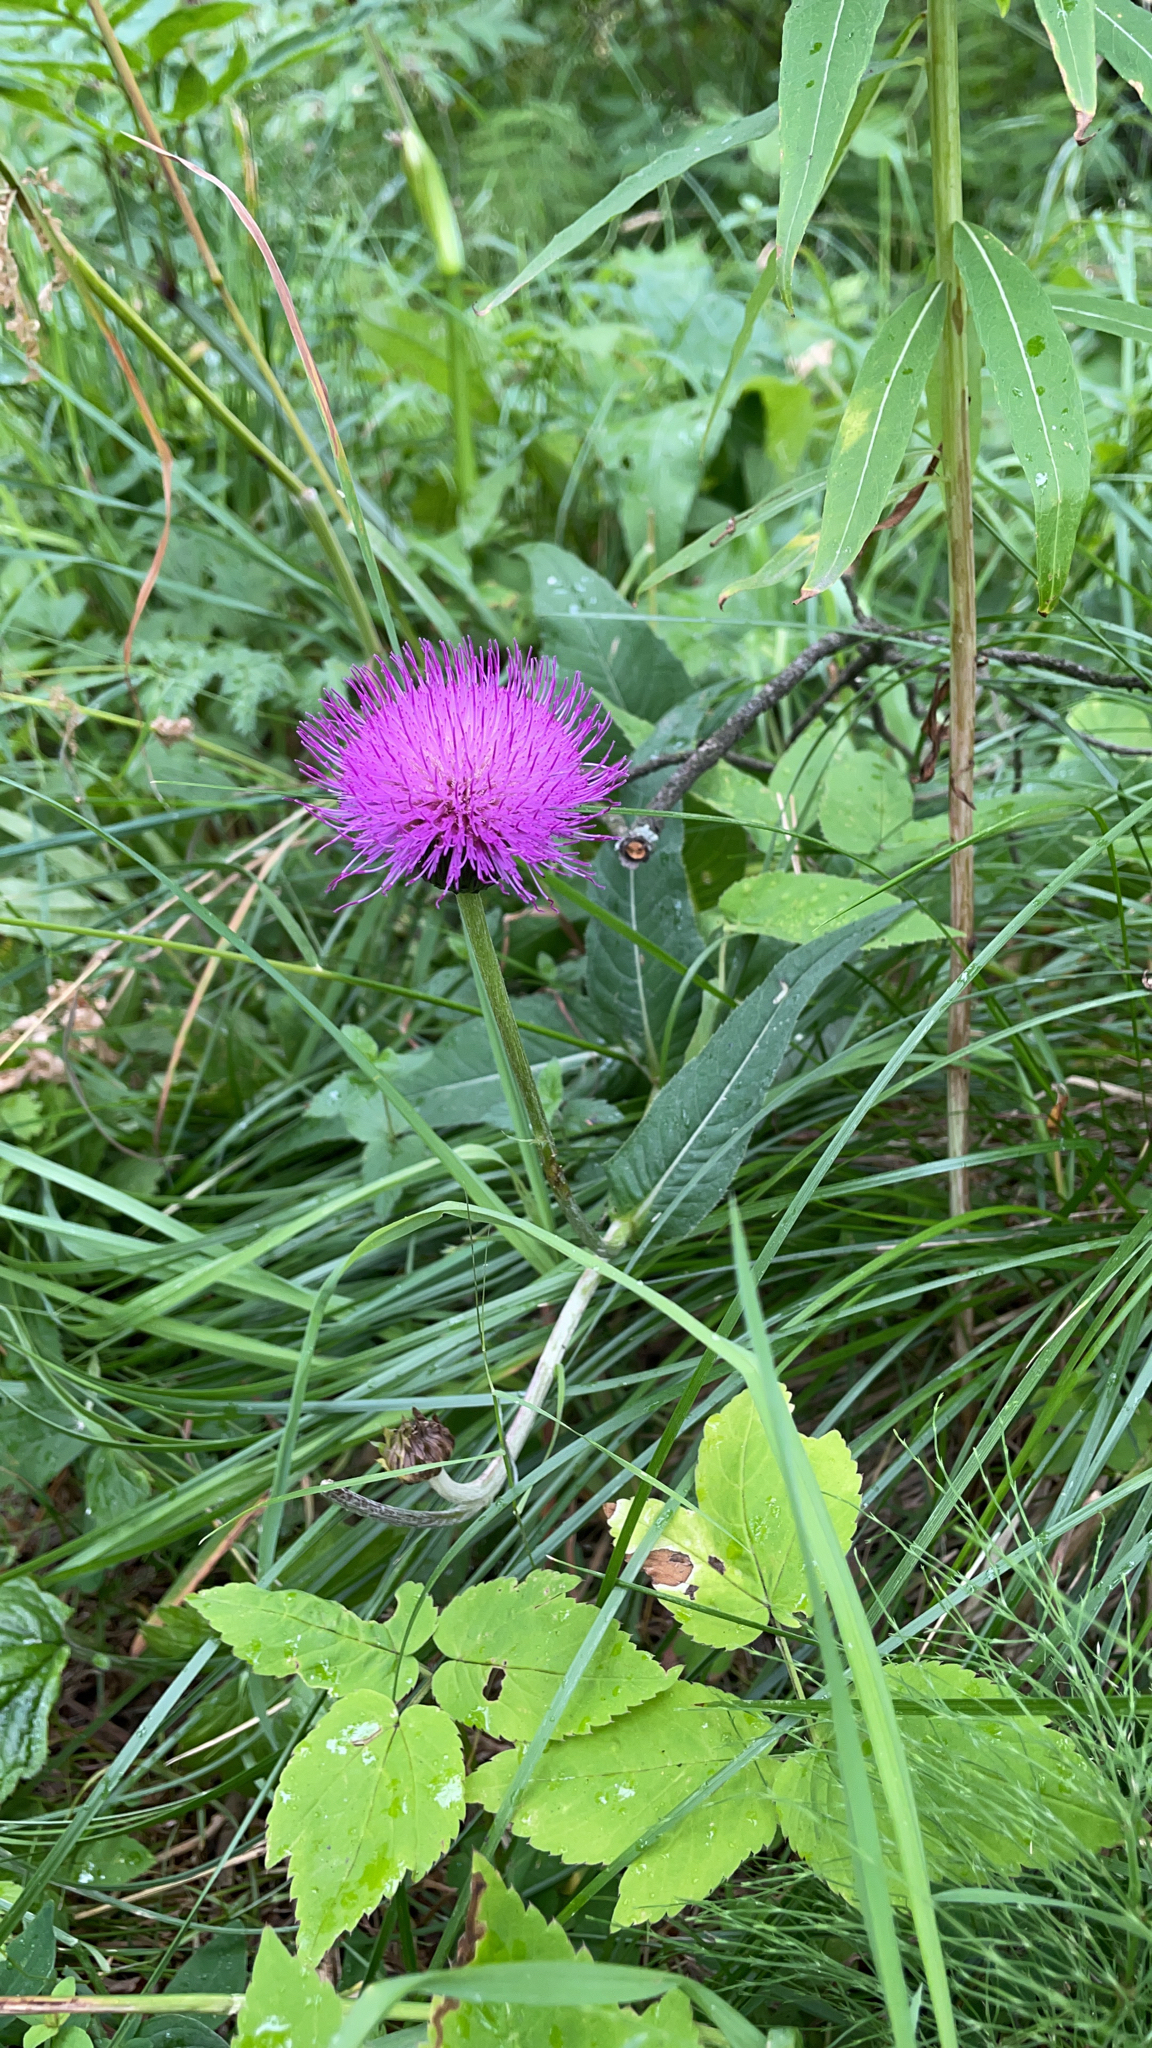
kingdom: Plantae
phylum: Tracheophyta
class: Magnoliopsida
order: Asterales
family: Asteraceae
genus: Cirsium
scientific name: Cirsium heterophyllum
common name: Melancholy thistle
